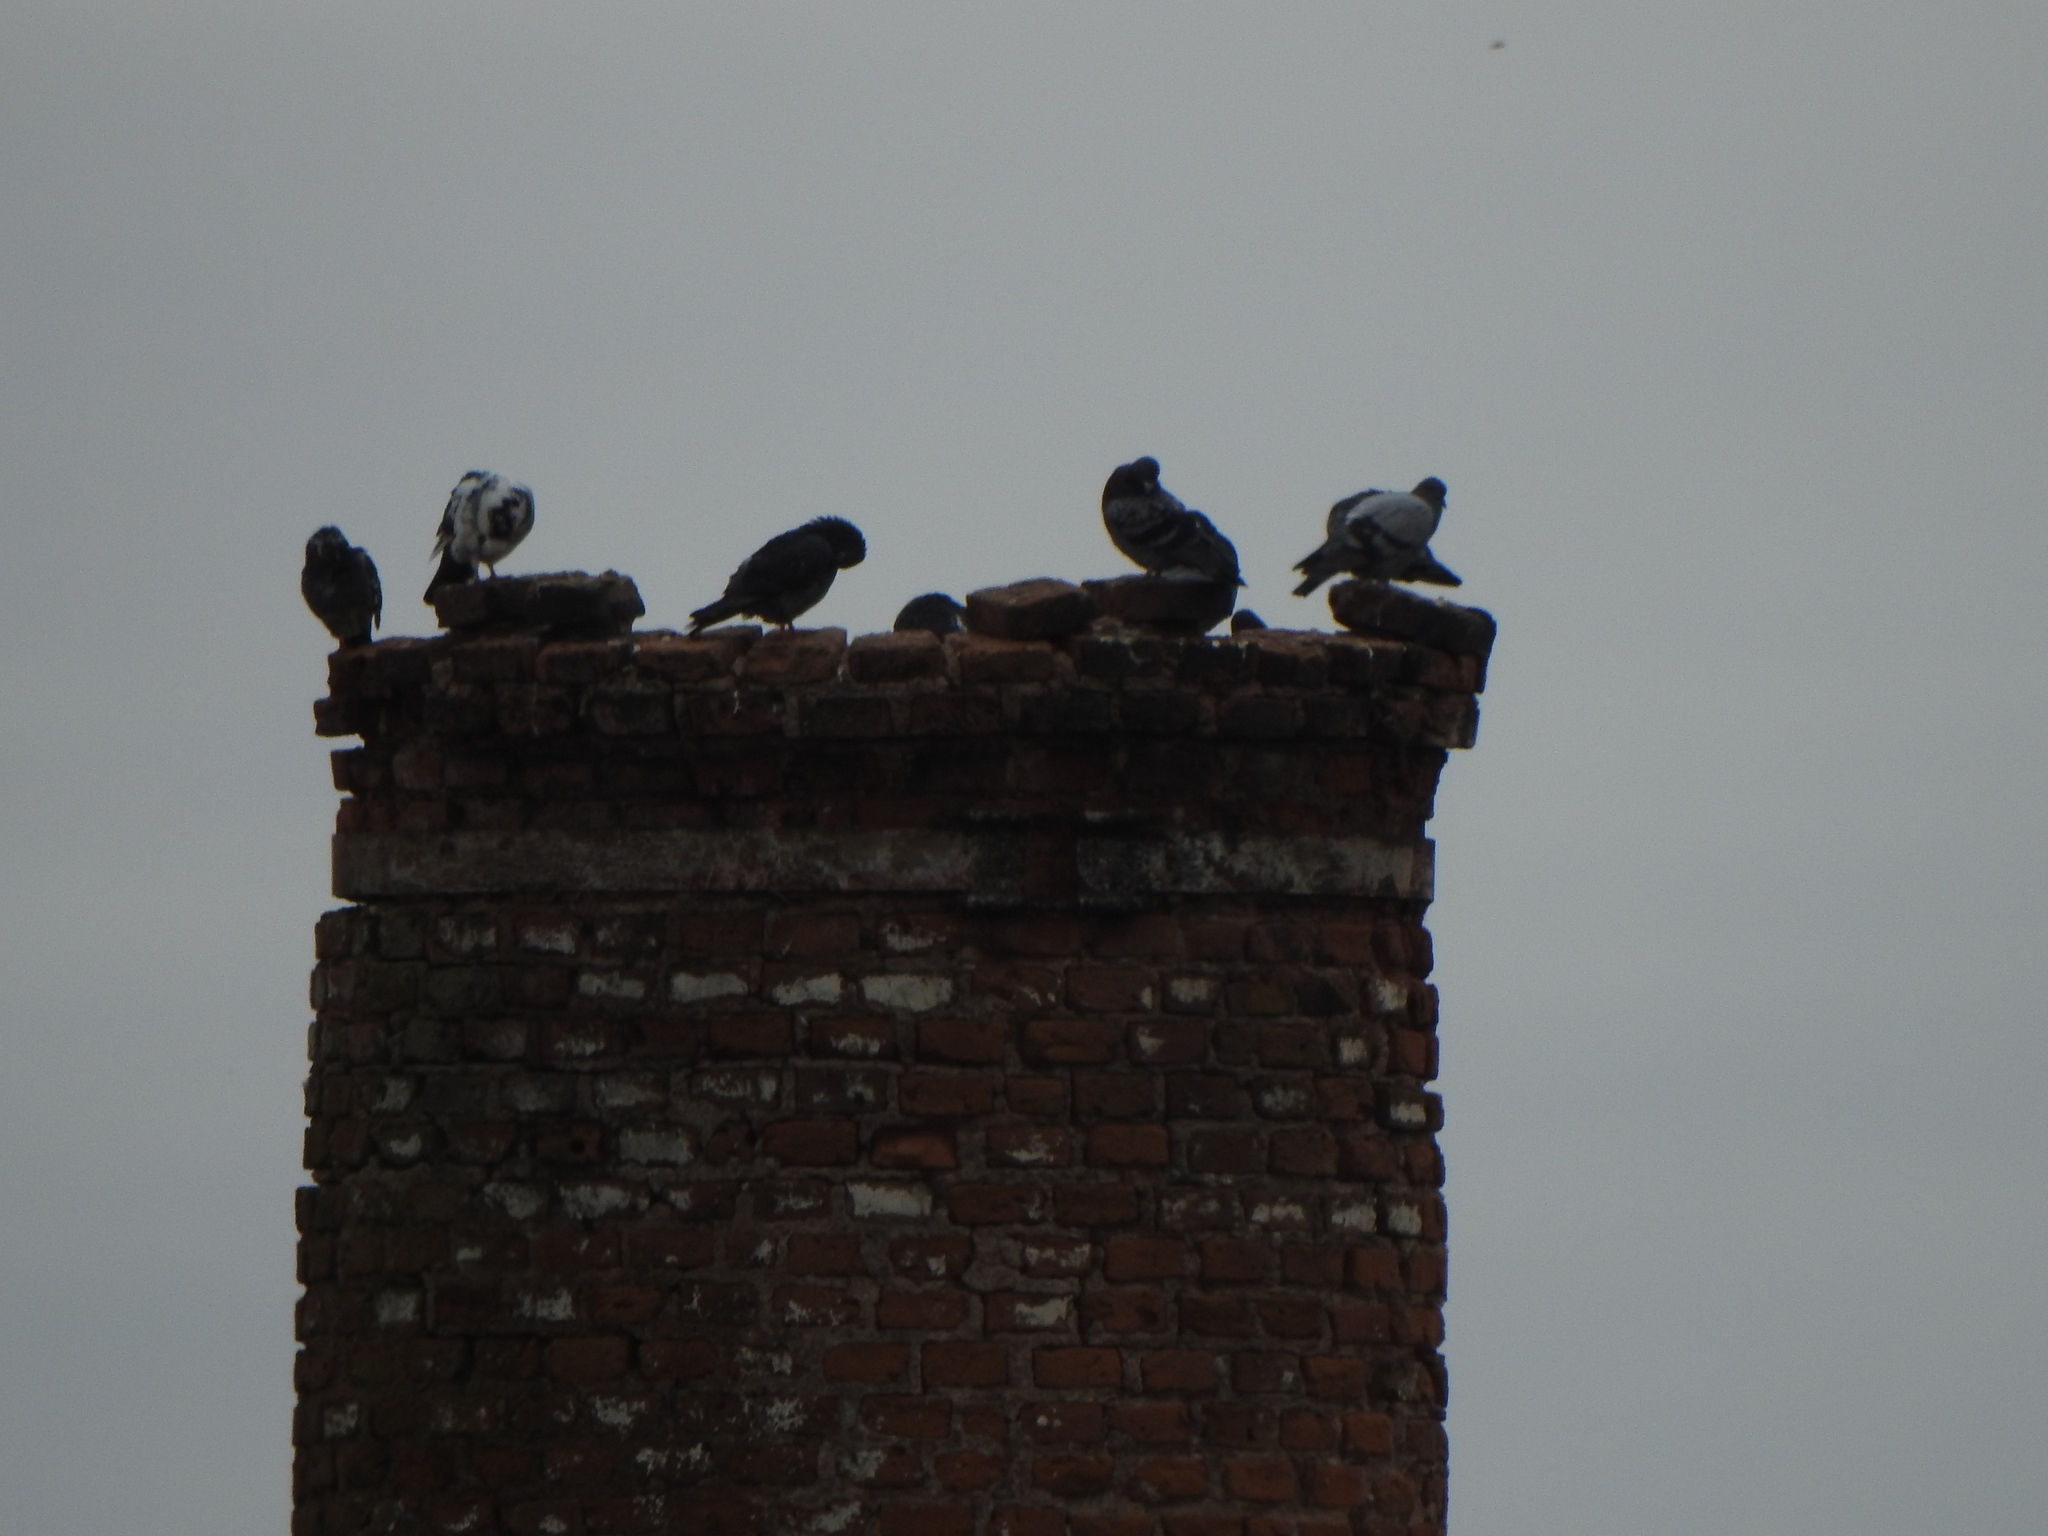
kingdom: Animalia
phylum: Chordata
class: Aves
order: Columbiformes
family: Columbidae
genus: Columba
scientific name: Columba livia
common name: Rock pigeon
